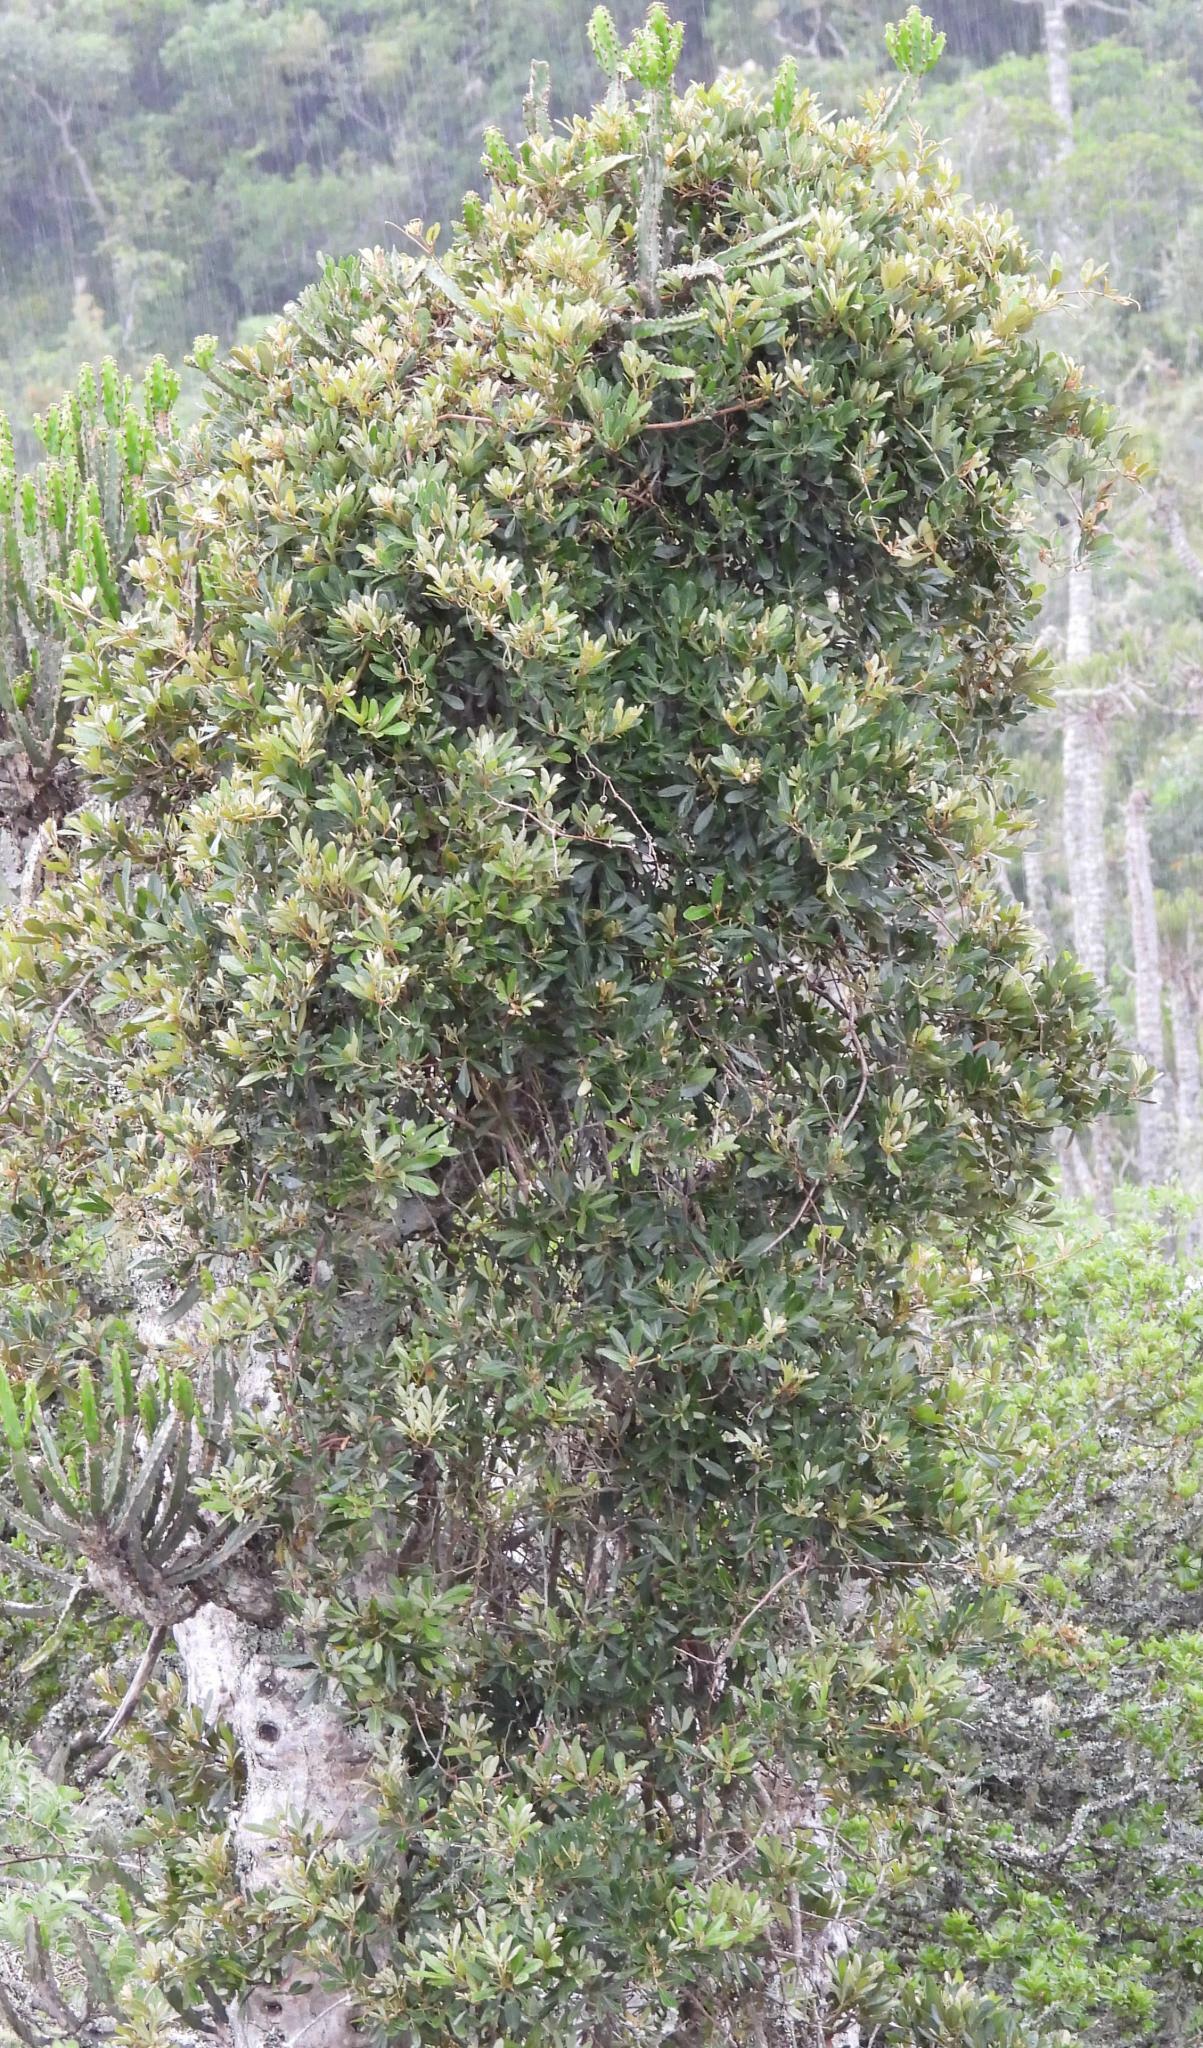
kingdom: Plantae
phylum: Tracheophyta
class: Magnoliopsida
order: Vitales
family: Vitaceae
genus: Rhoicissus
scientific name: Rhoicissus digitata
